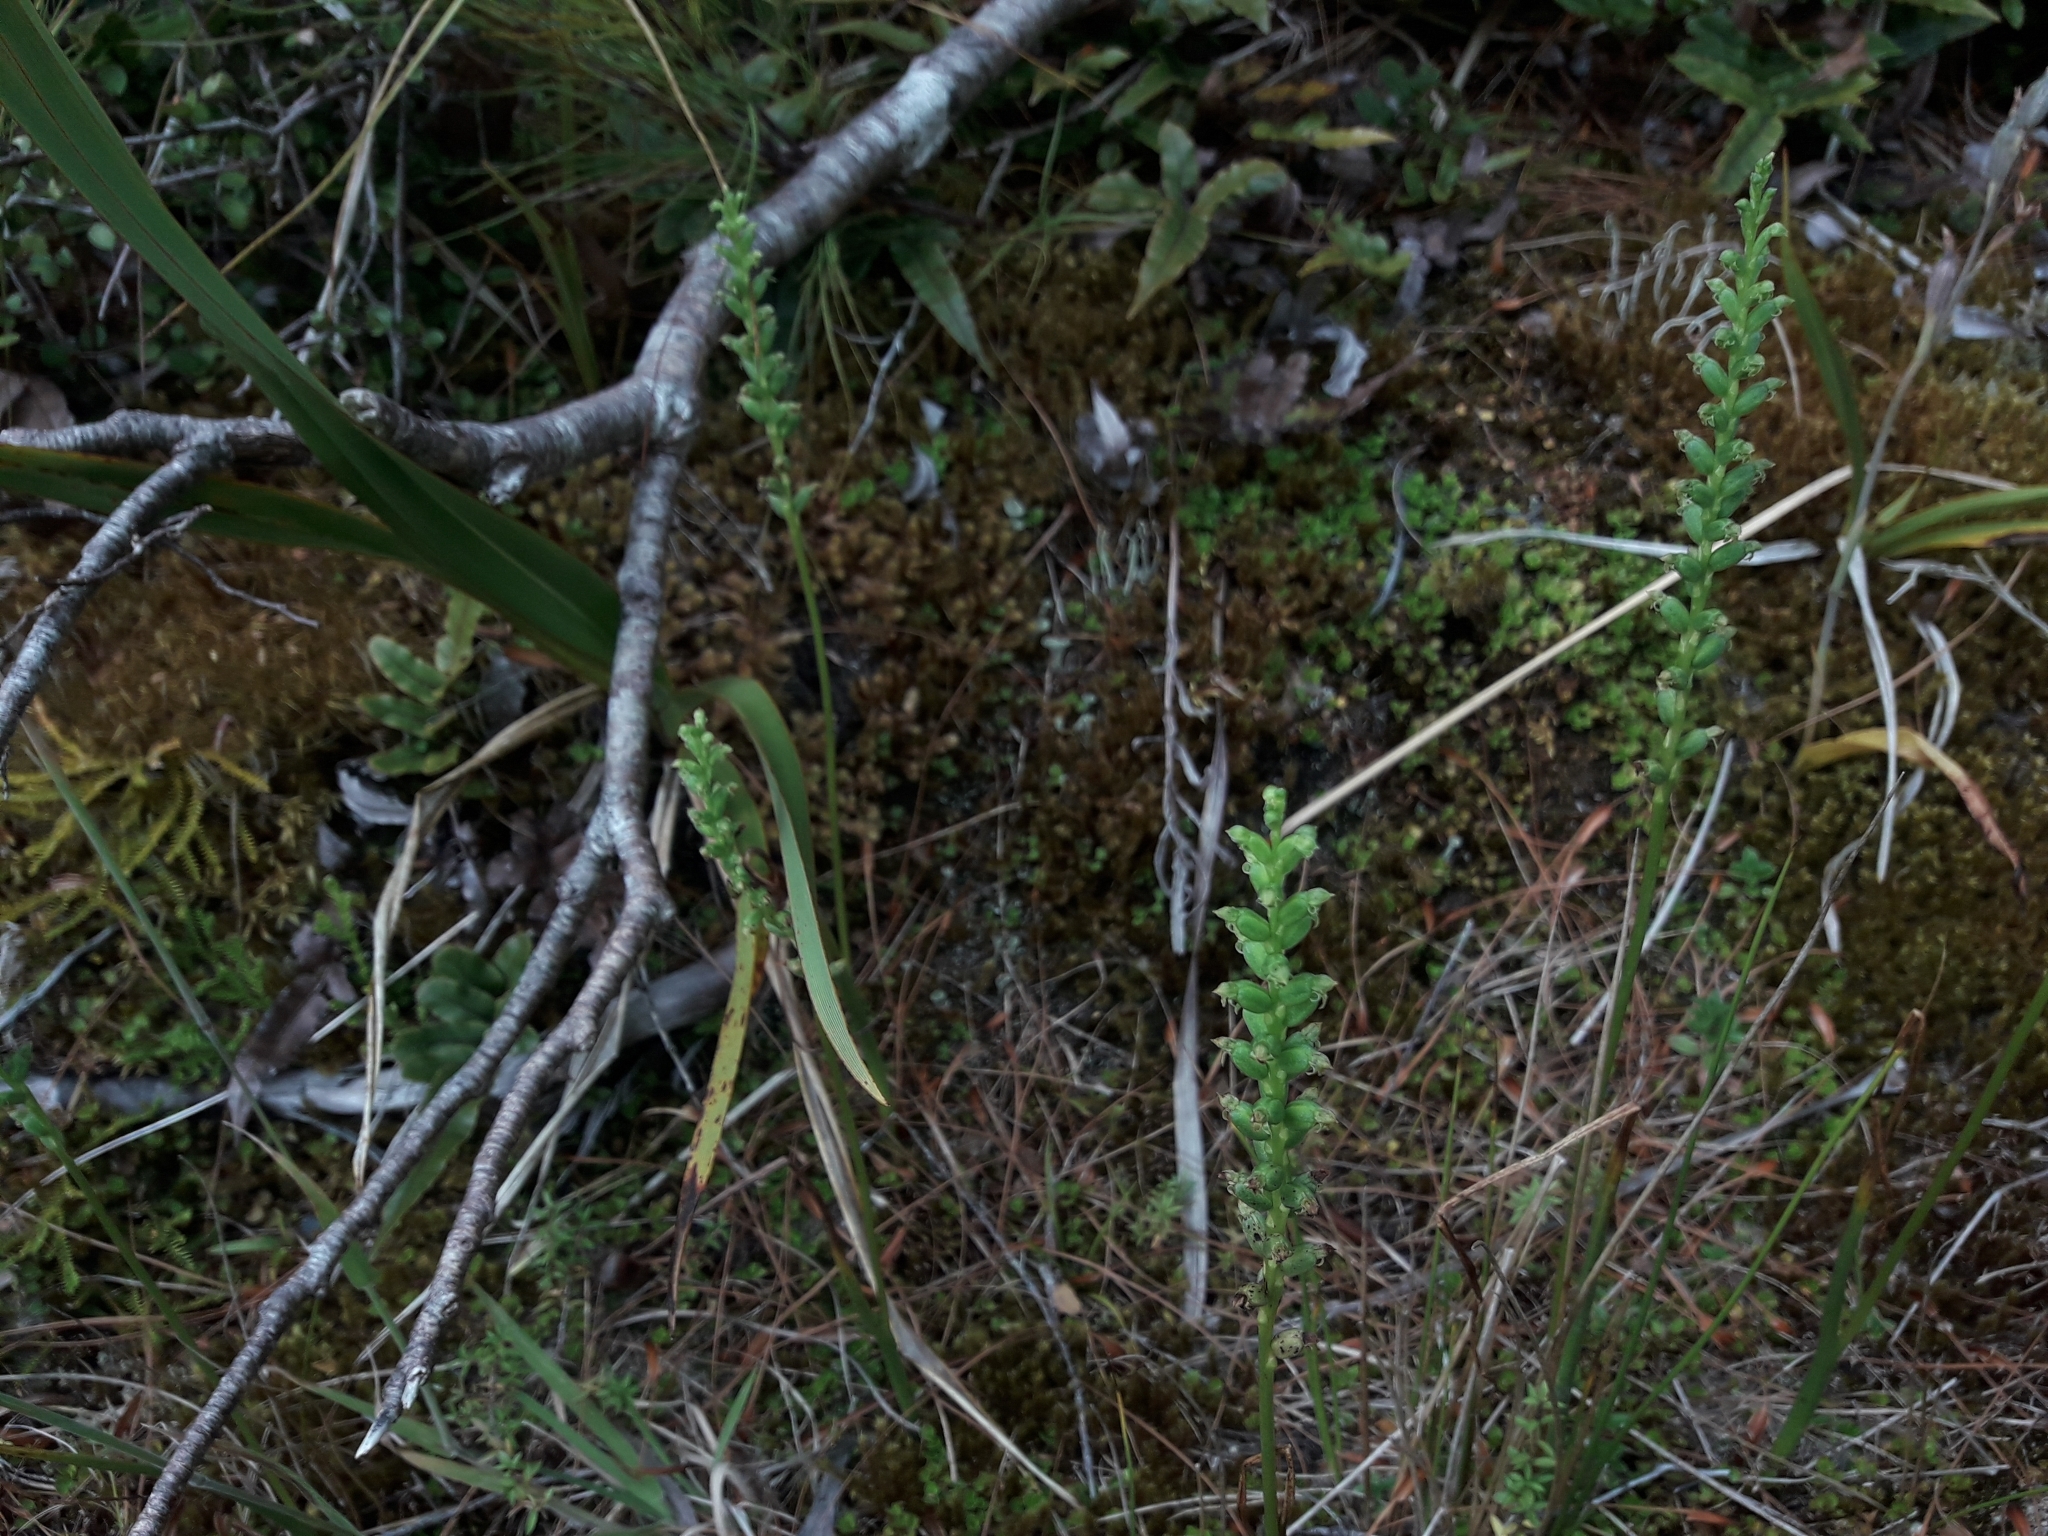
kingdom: Plantae
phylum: Tracheophyta
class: Liliopsida
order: Asparagales
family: Orchidaceae
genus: Microtis
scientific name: Microtis unifolia
